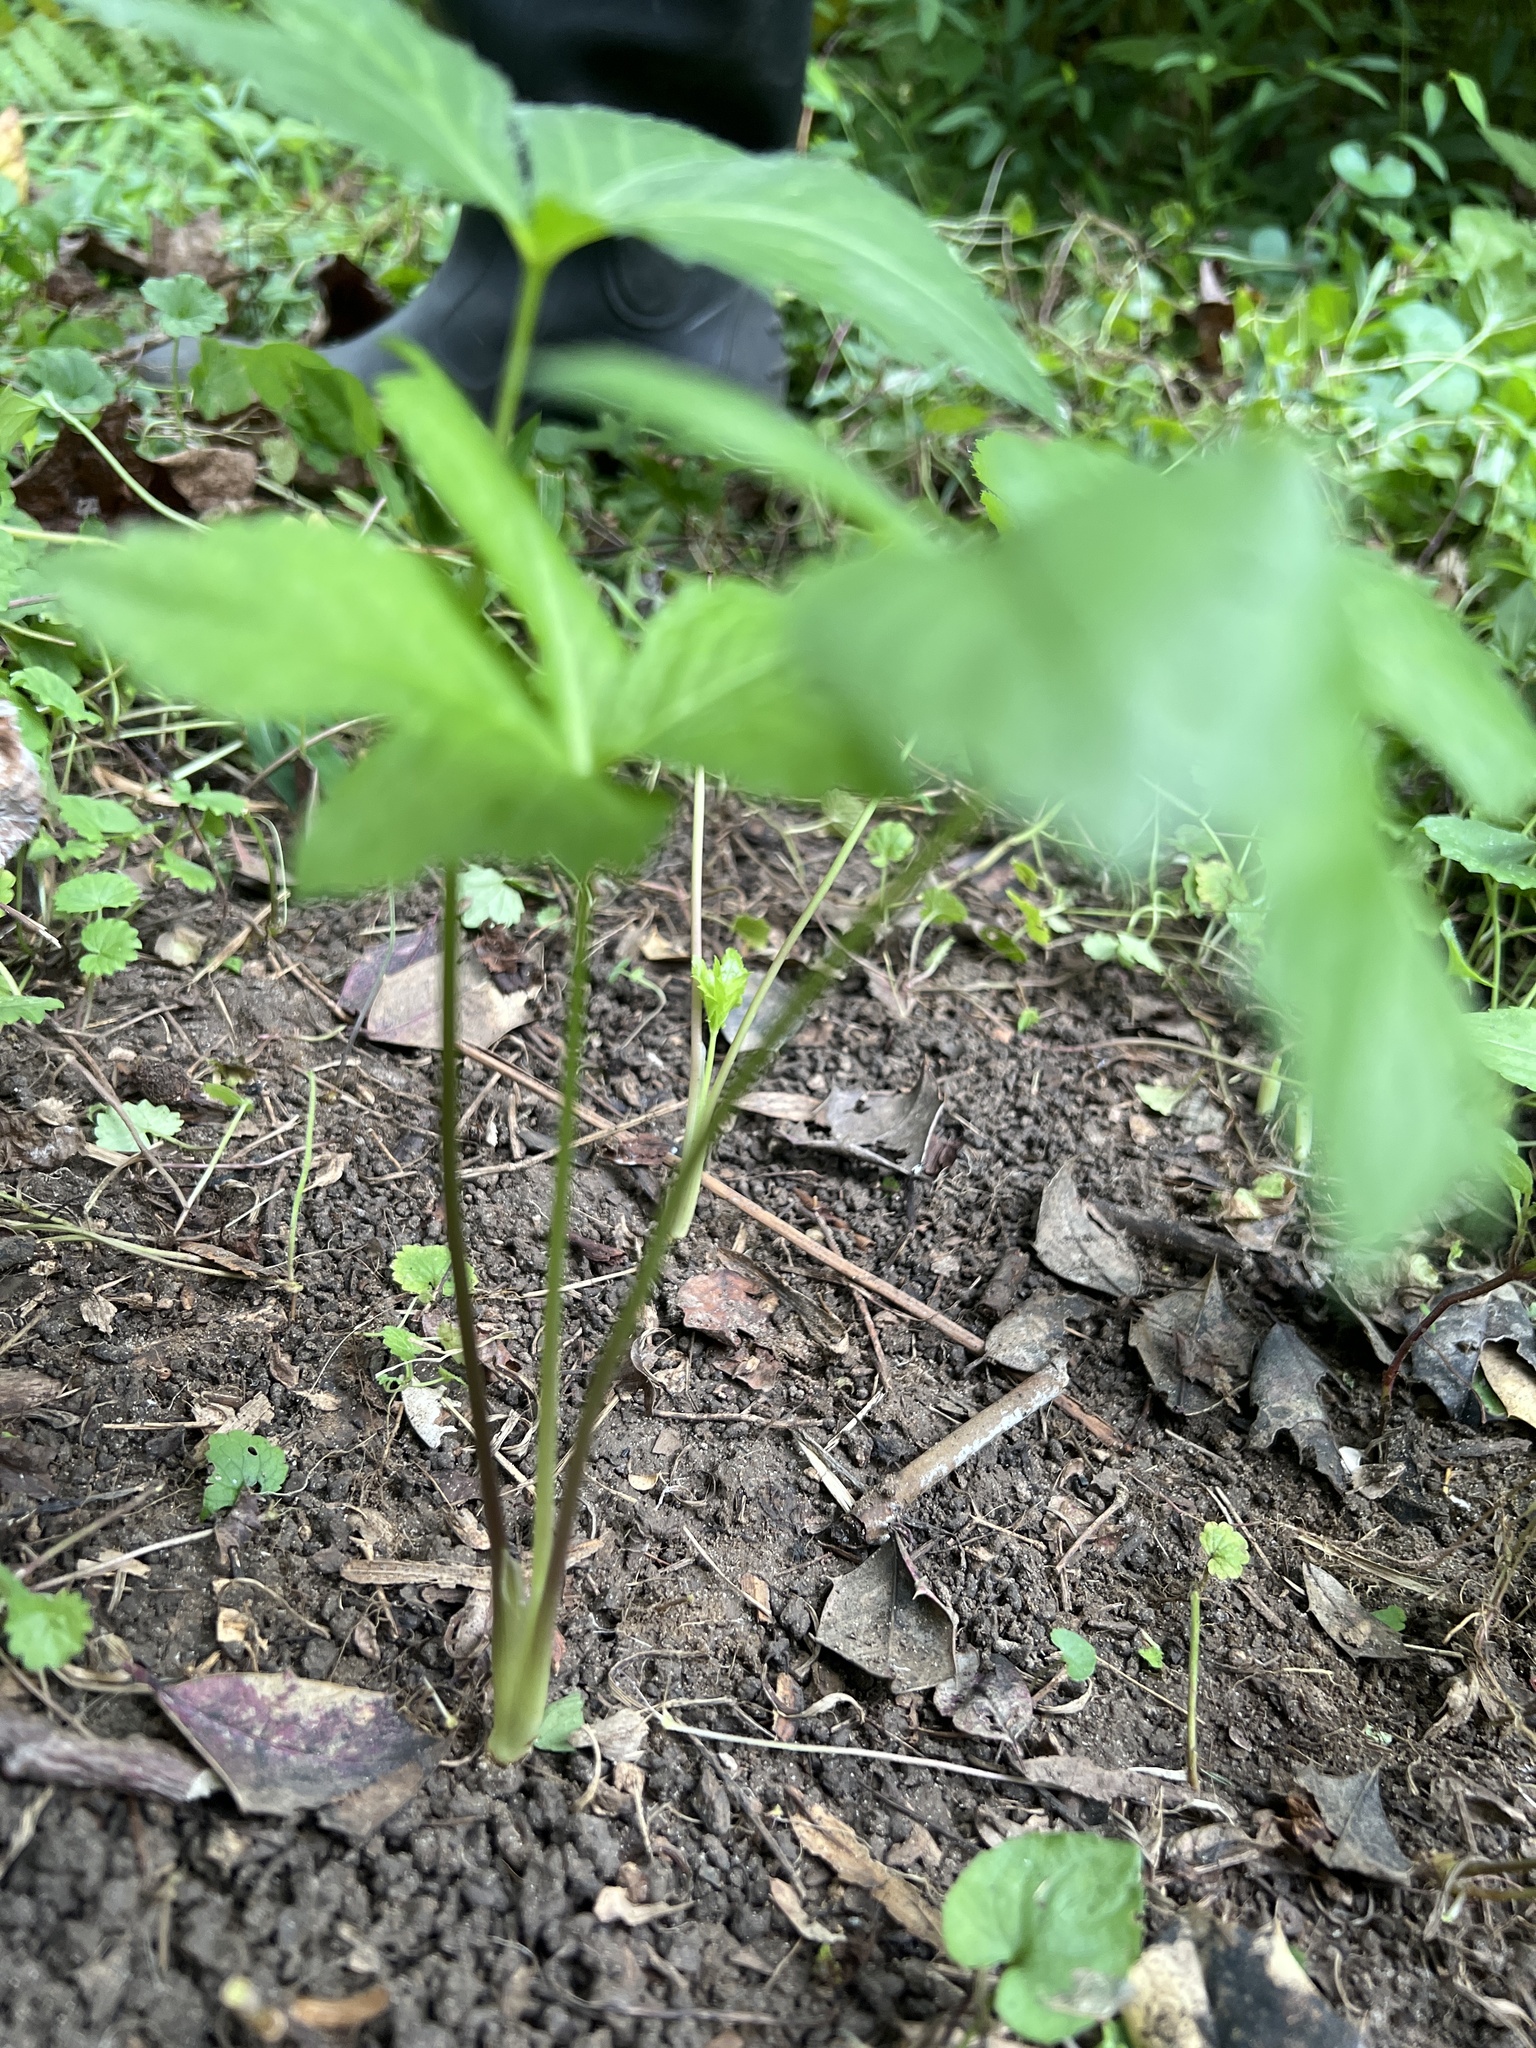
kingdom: Plantae
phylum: Tracheophyta
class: Magnoliopsida
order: Apiales
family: Apiaceae
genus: Cryptotaenia
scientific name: Cryptotaenia canadensis
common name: Honewort
